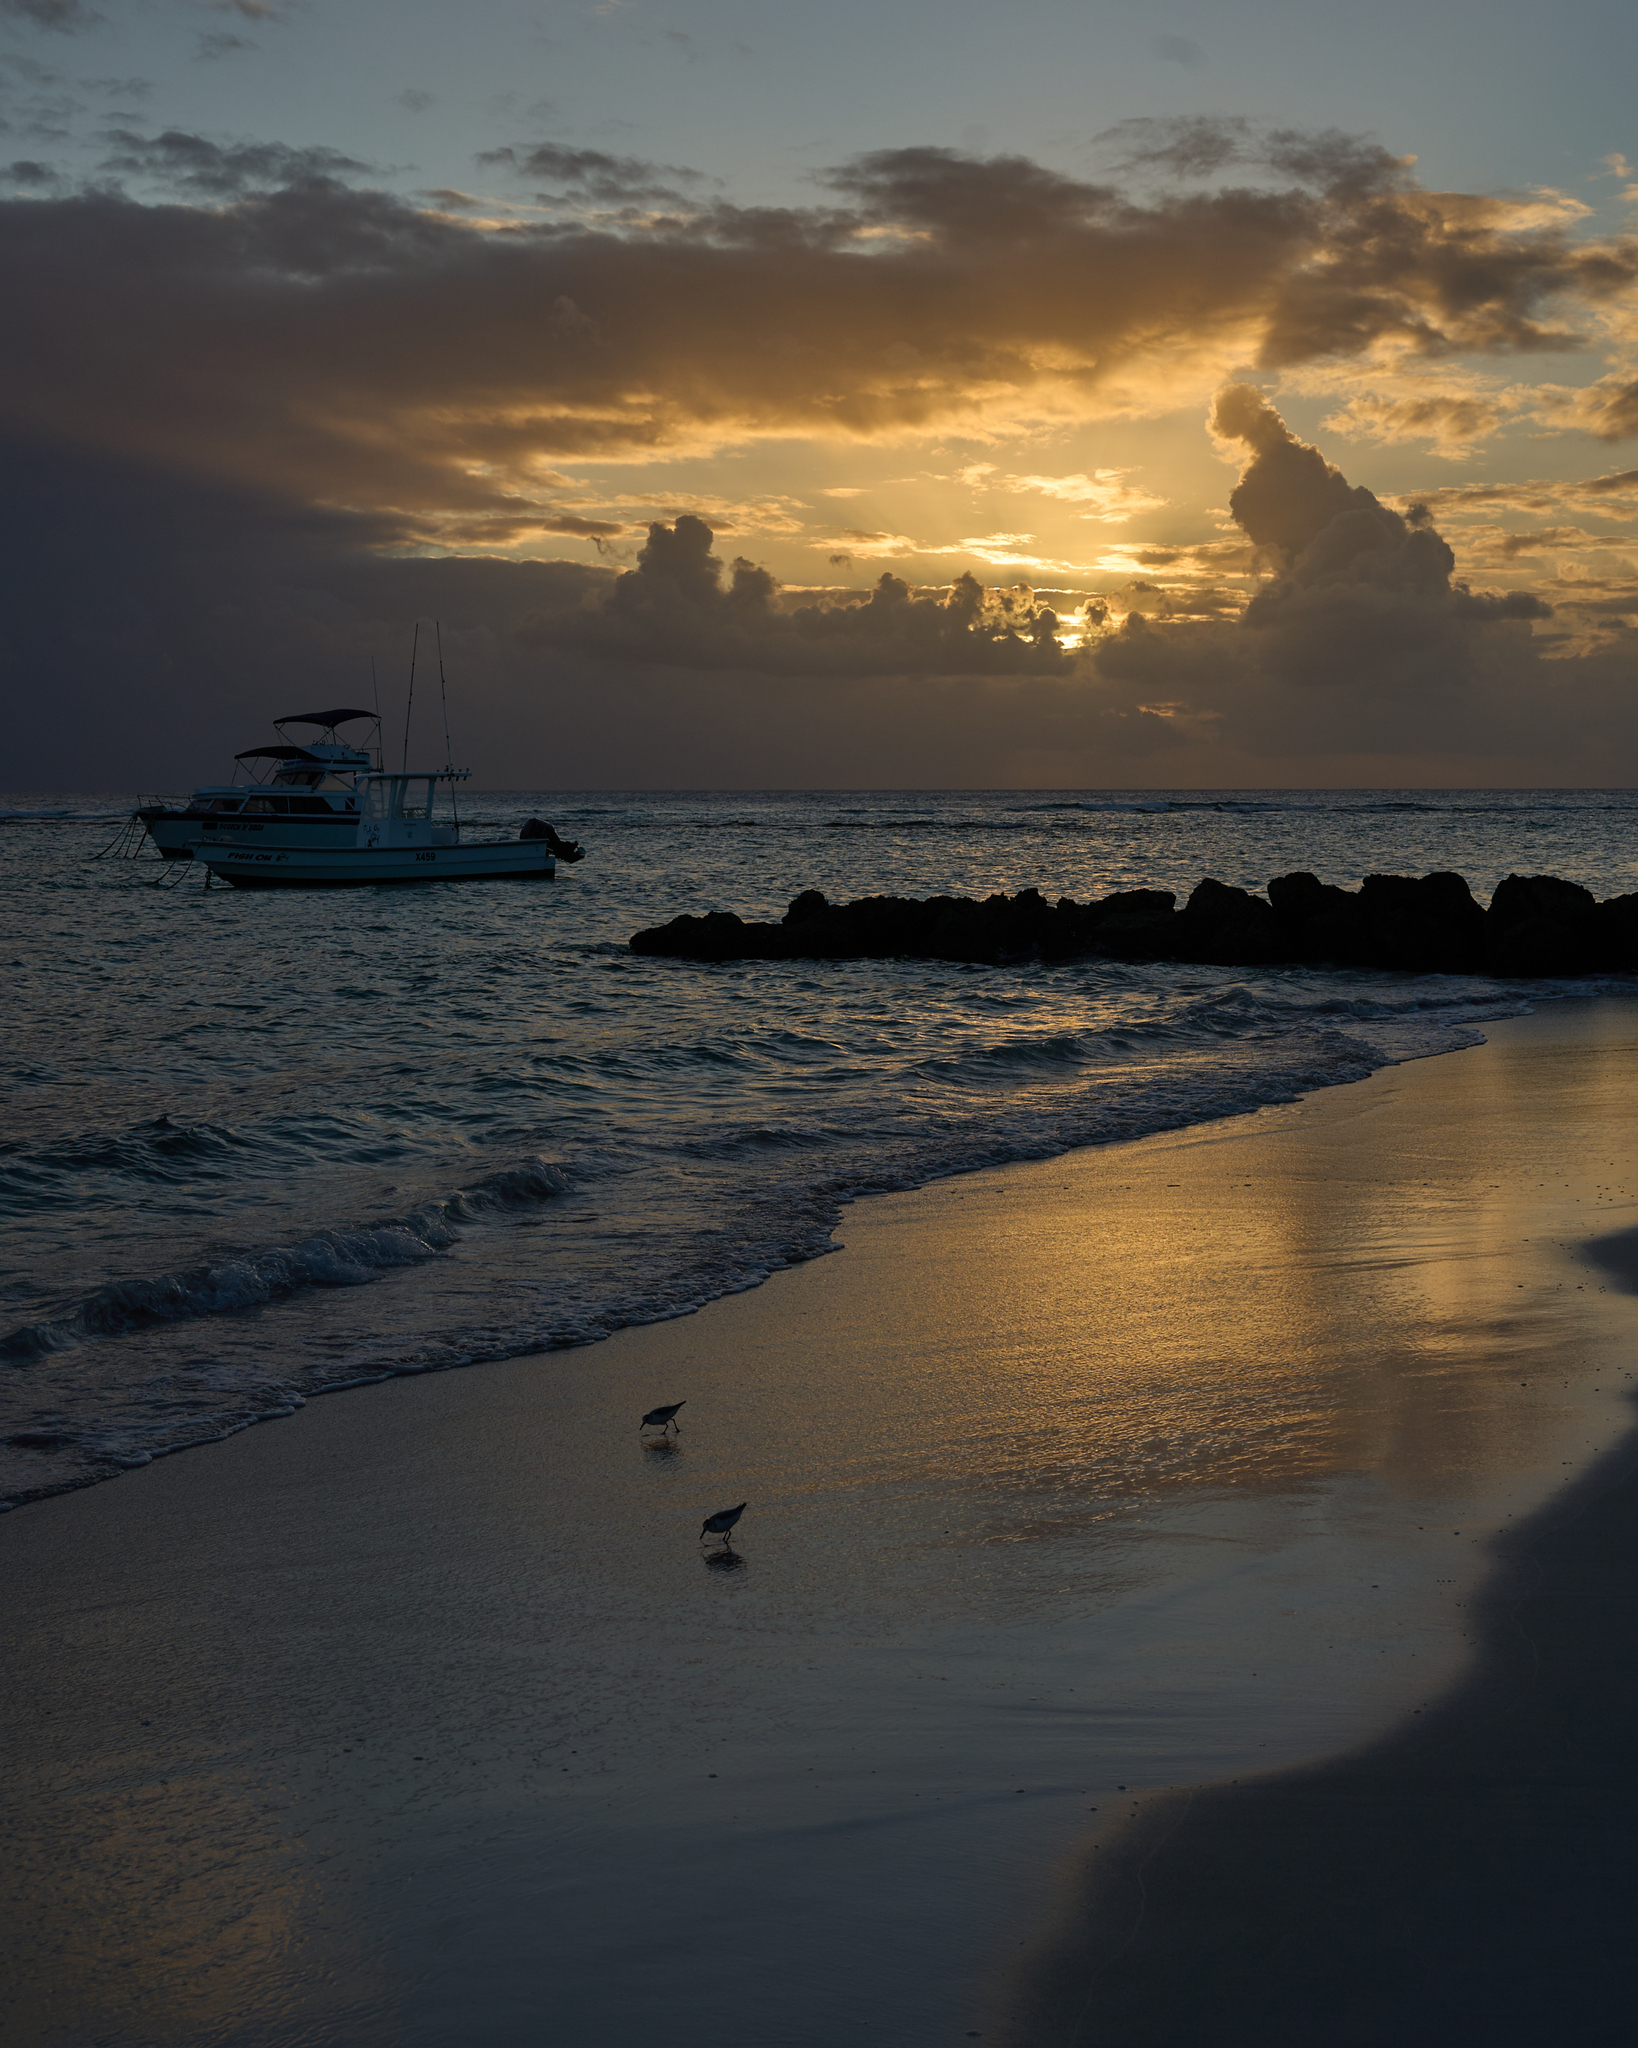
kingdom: Animalia
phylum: Chordata
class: Aves
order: Charadriiformes
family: Scolopacidae
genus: Calidris
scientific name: Calidris alba
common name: Sanderling
